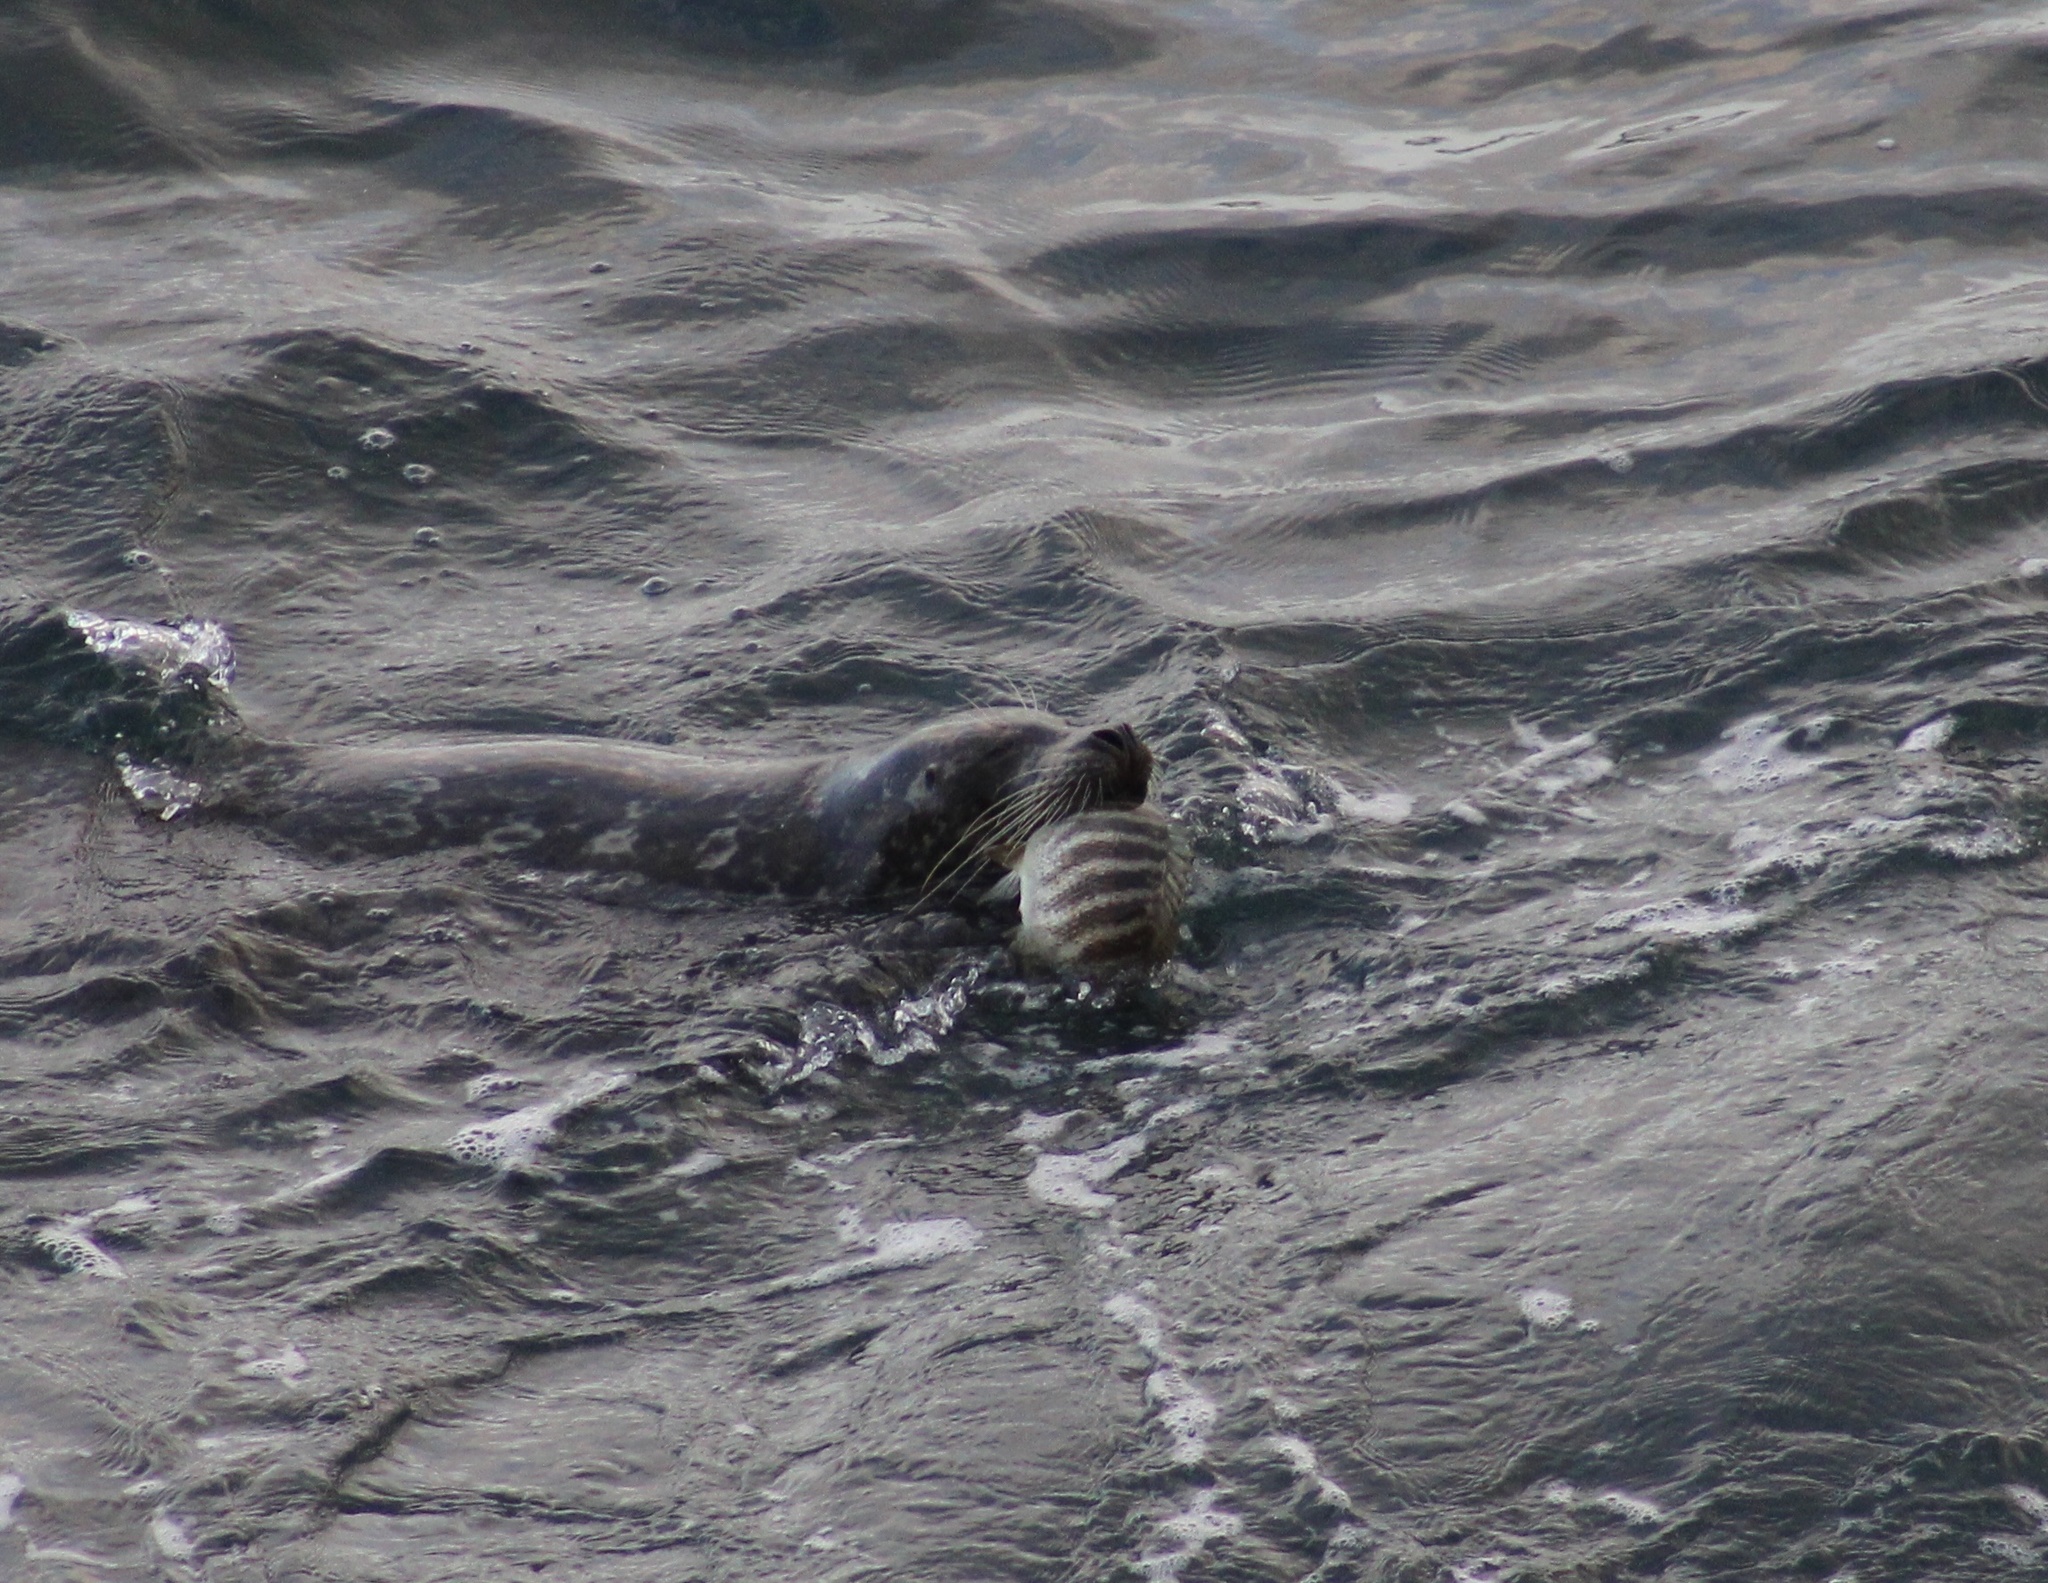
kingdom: Animalia
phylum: Chordata
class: Mammalia
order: Carnivora
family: Phocidae
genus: Phoca
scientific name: Phoca vitulina
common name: Harbor seal
